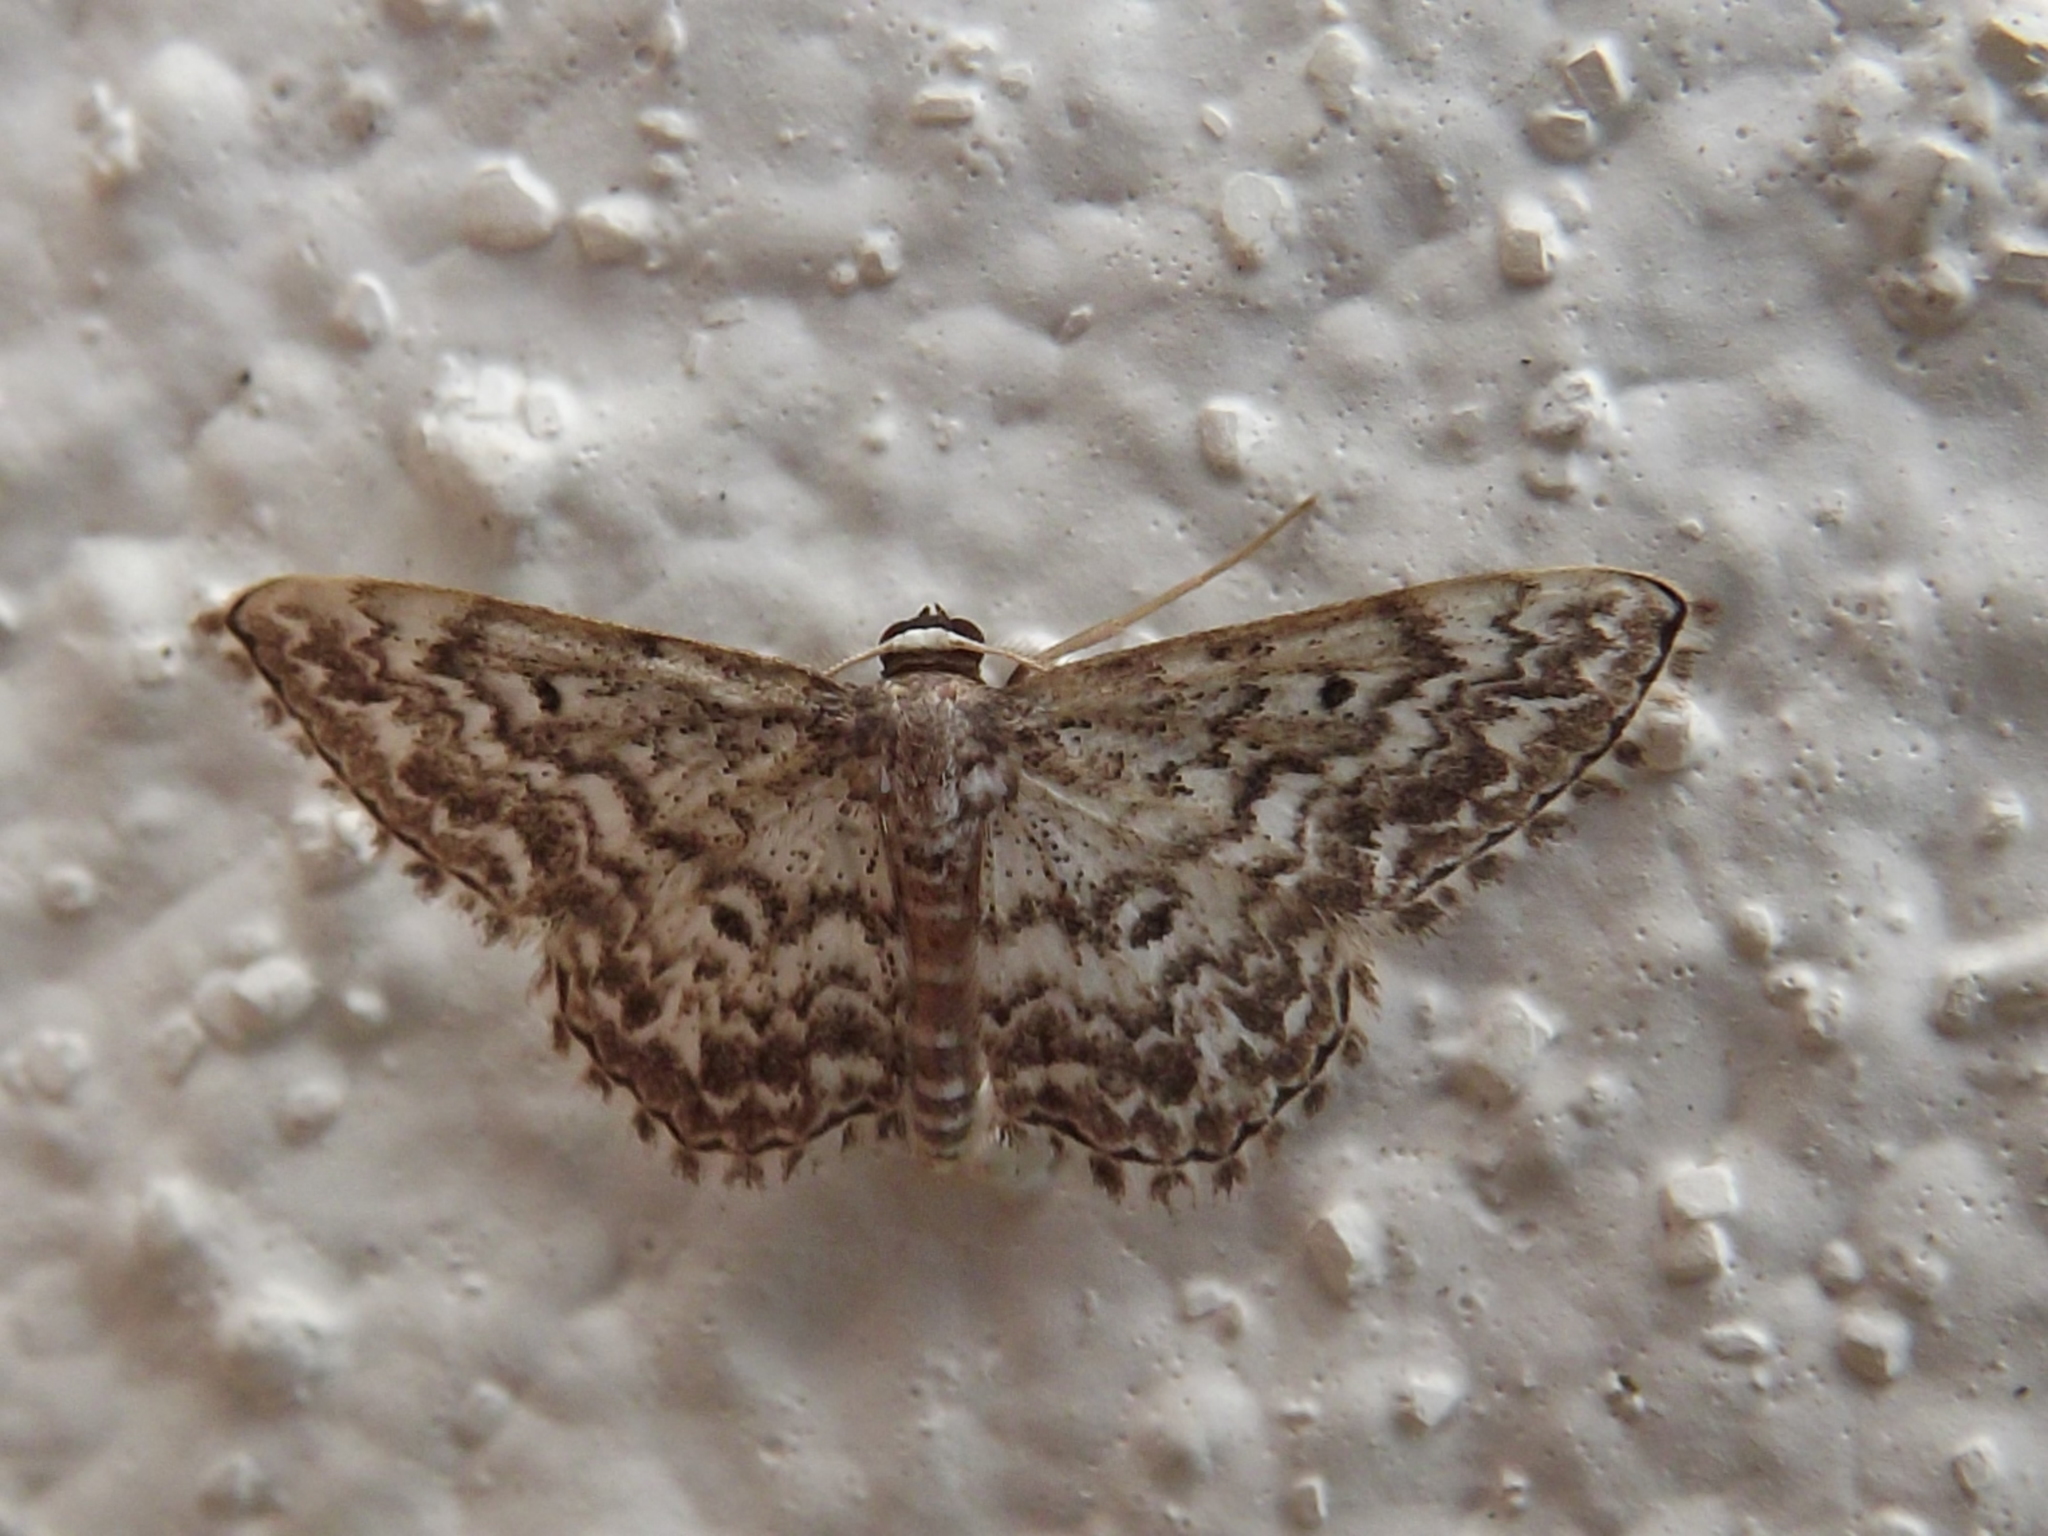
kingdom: Animalia
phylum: Arthropoda
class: Insecta
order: Lepidoptera
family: Geometridae
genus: Scopula
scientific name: Scopula inscriptata
